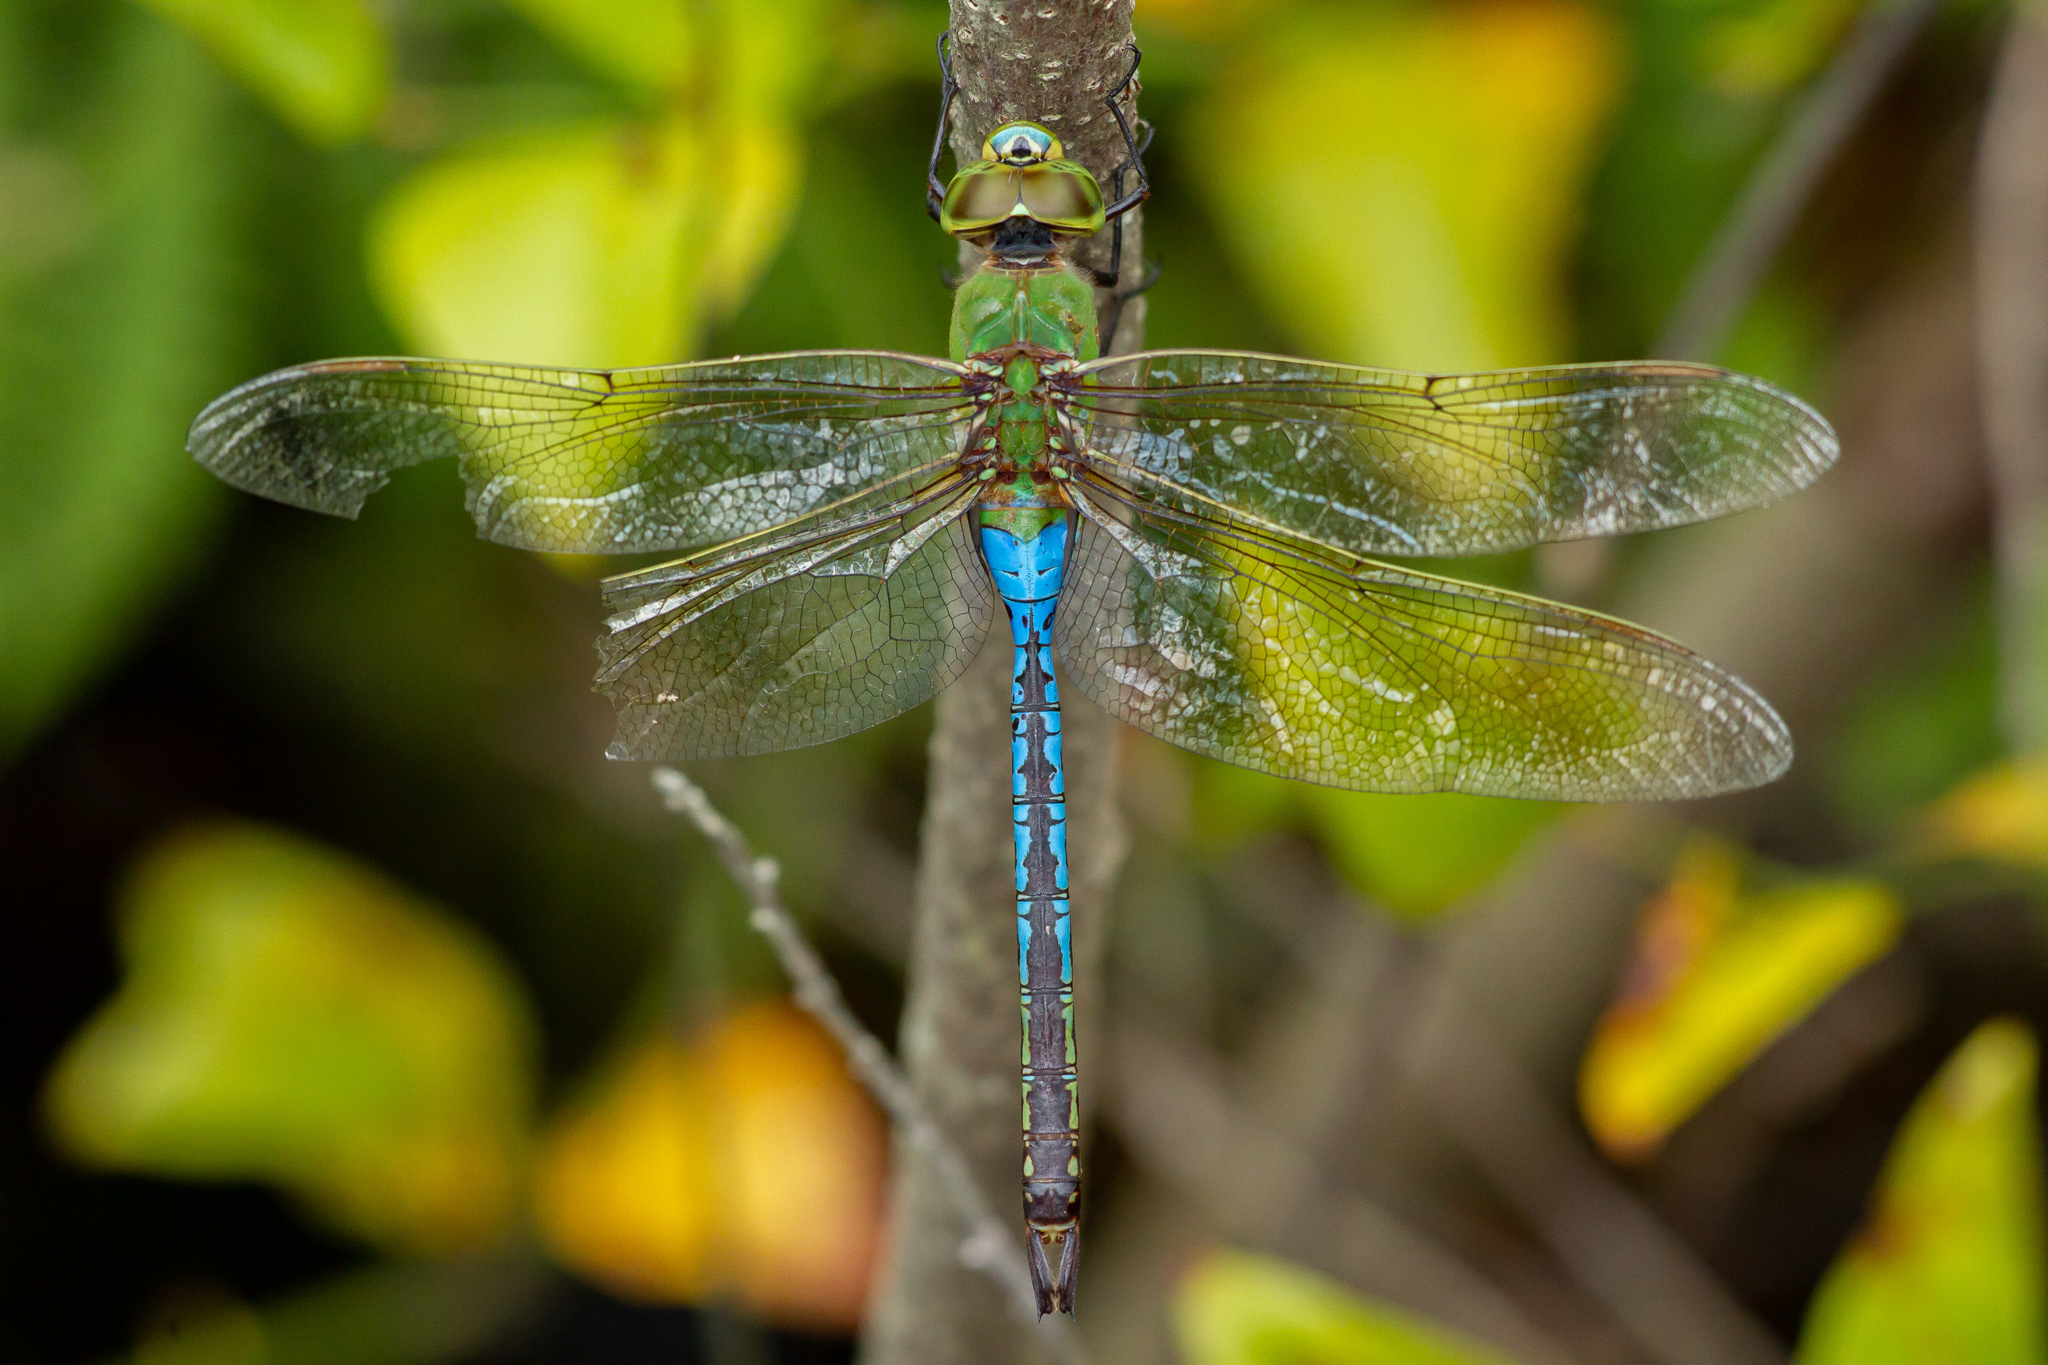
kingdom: Animalia
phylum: Arthropoda
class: Insecta
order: Odonata
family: Aeshnidae
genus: Anax
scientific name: Anax junius
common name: Common green darner
